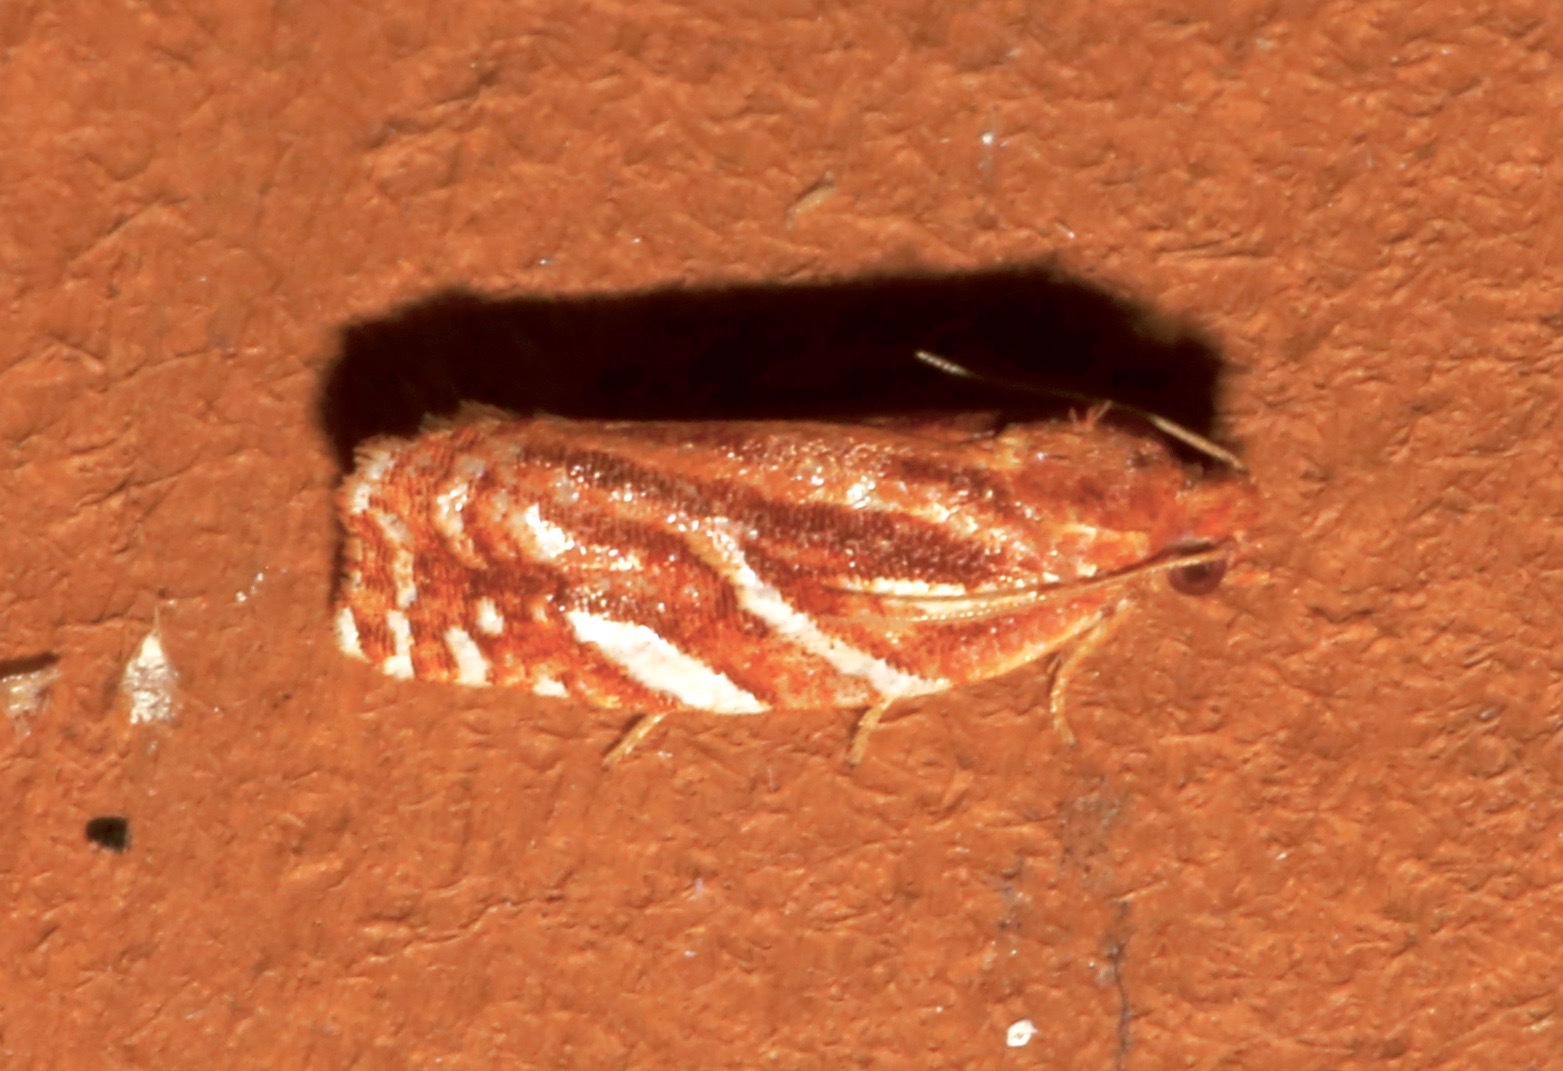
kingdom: Animalia
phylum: Arthropoda
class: Insecta
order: Lepidoptera
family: Tortricidae
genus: Choristoneura
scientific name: Choristoneura argentifasciata
